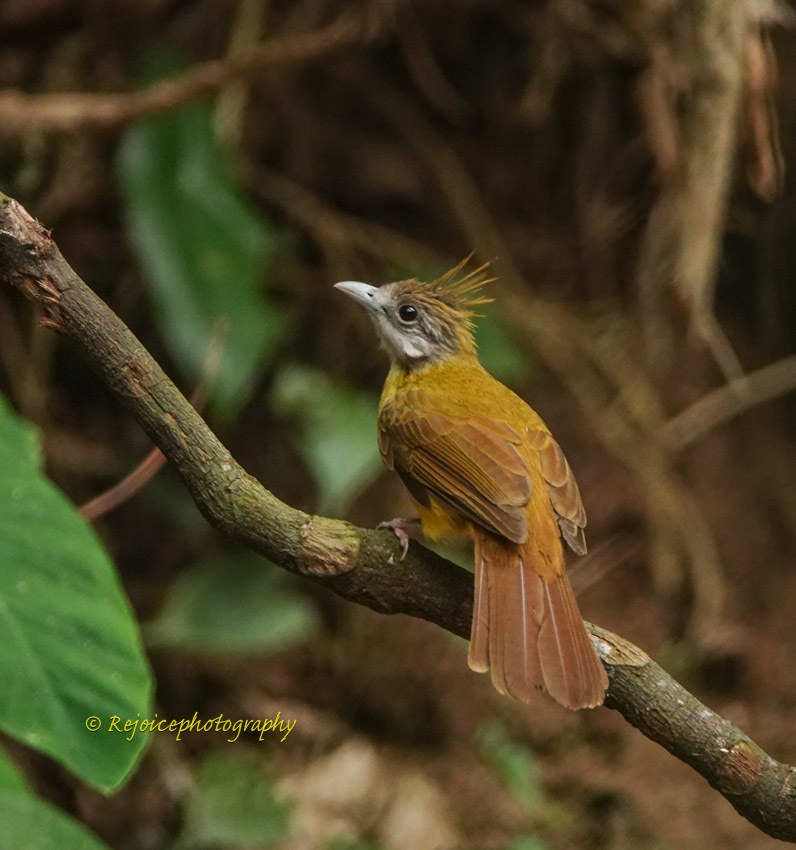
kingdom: Animalia
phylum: Chordata
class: Aves
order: Passeriformes
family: Pycnonotidae
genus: Alophoixus
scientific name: Alophoixus flaveolus
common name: White-throated bulbul
